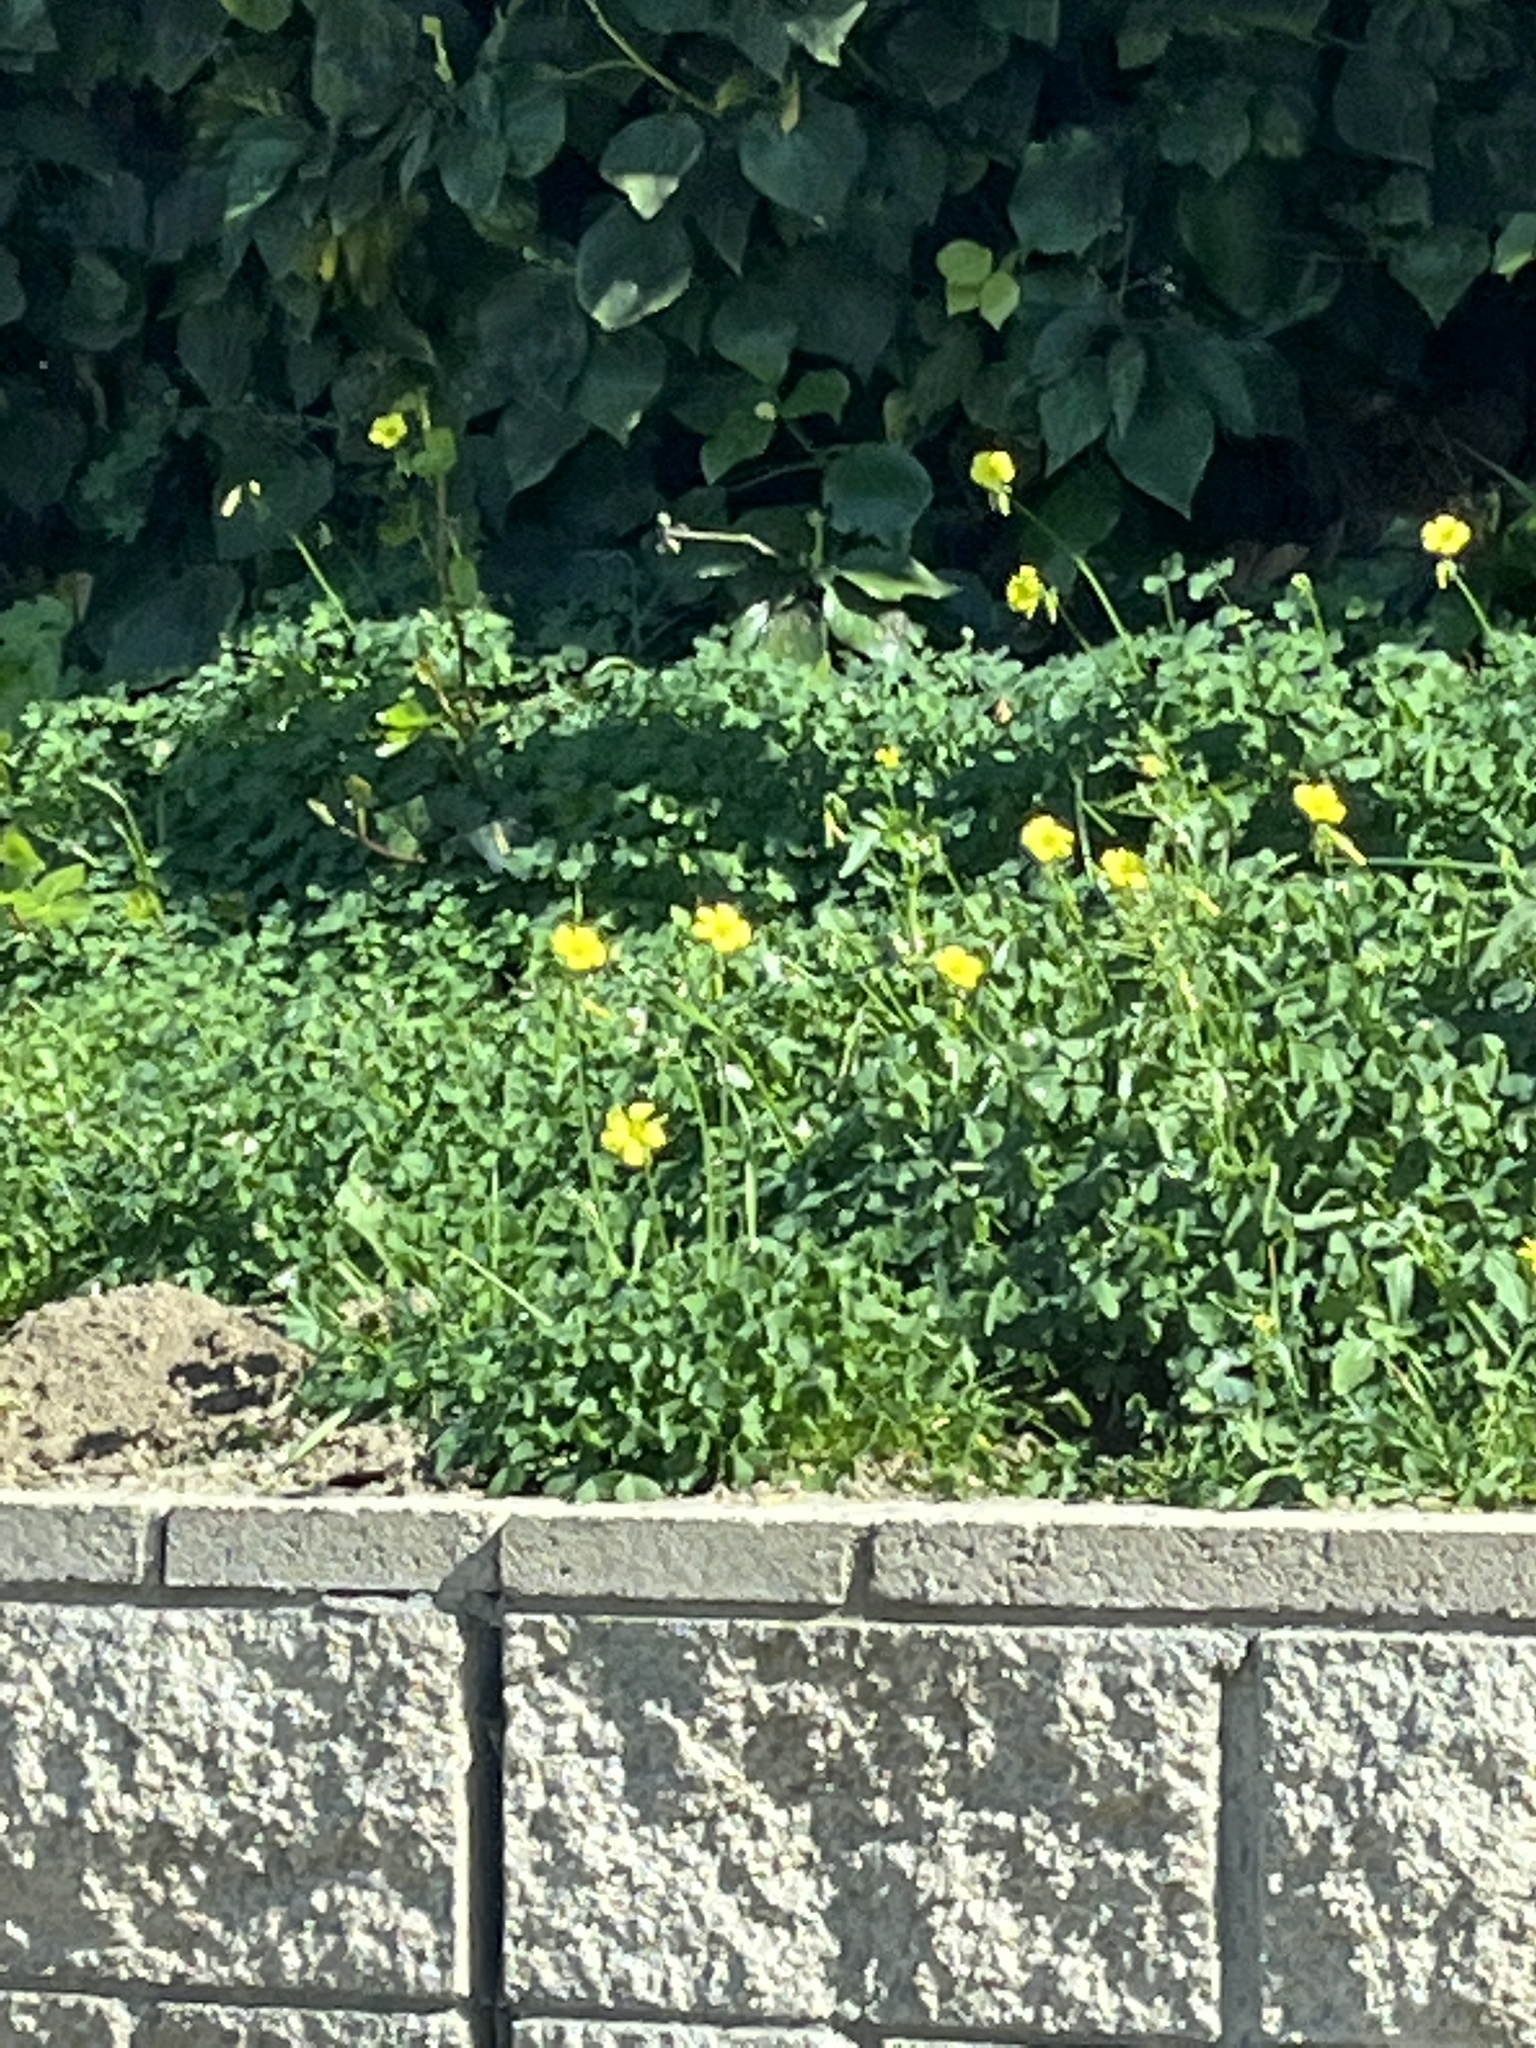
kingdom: Plantae
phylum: Tracheophyta
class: Magnoliopsida
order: Oxalidales
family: Oxalidaceae
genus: Oxalis
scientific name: Oxalis pes-caprae
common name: Bermuda-buttercup
